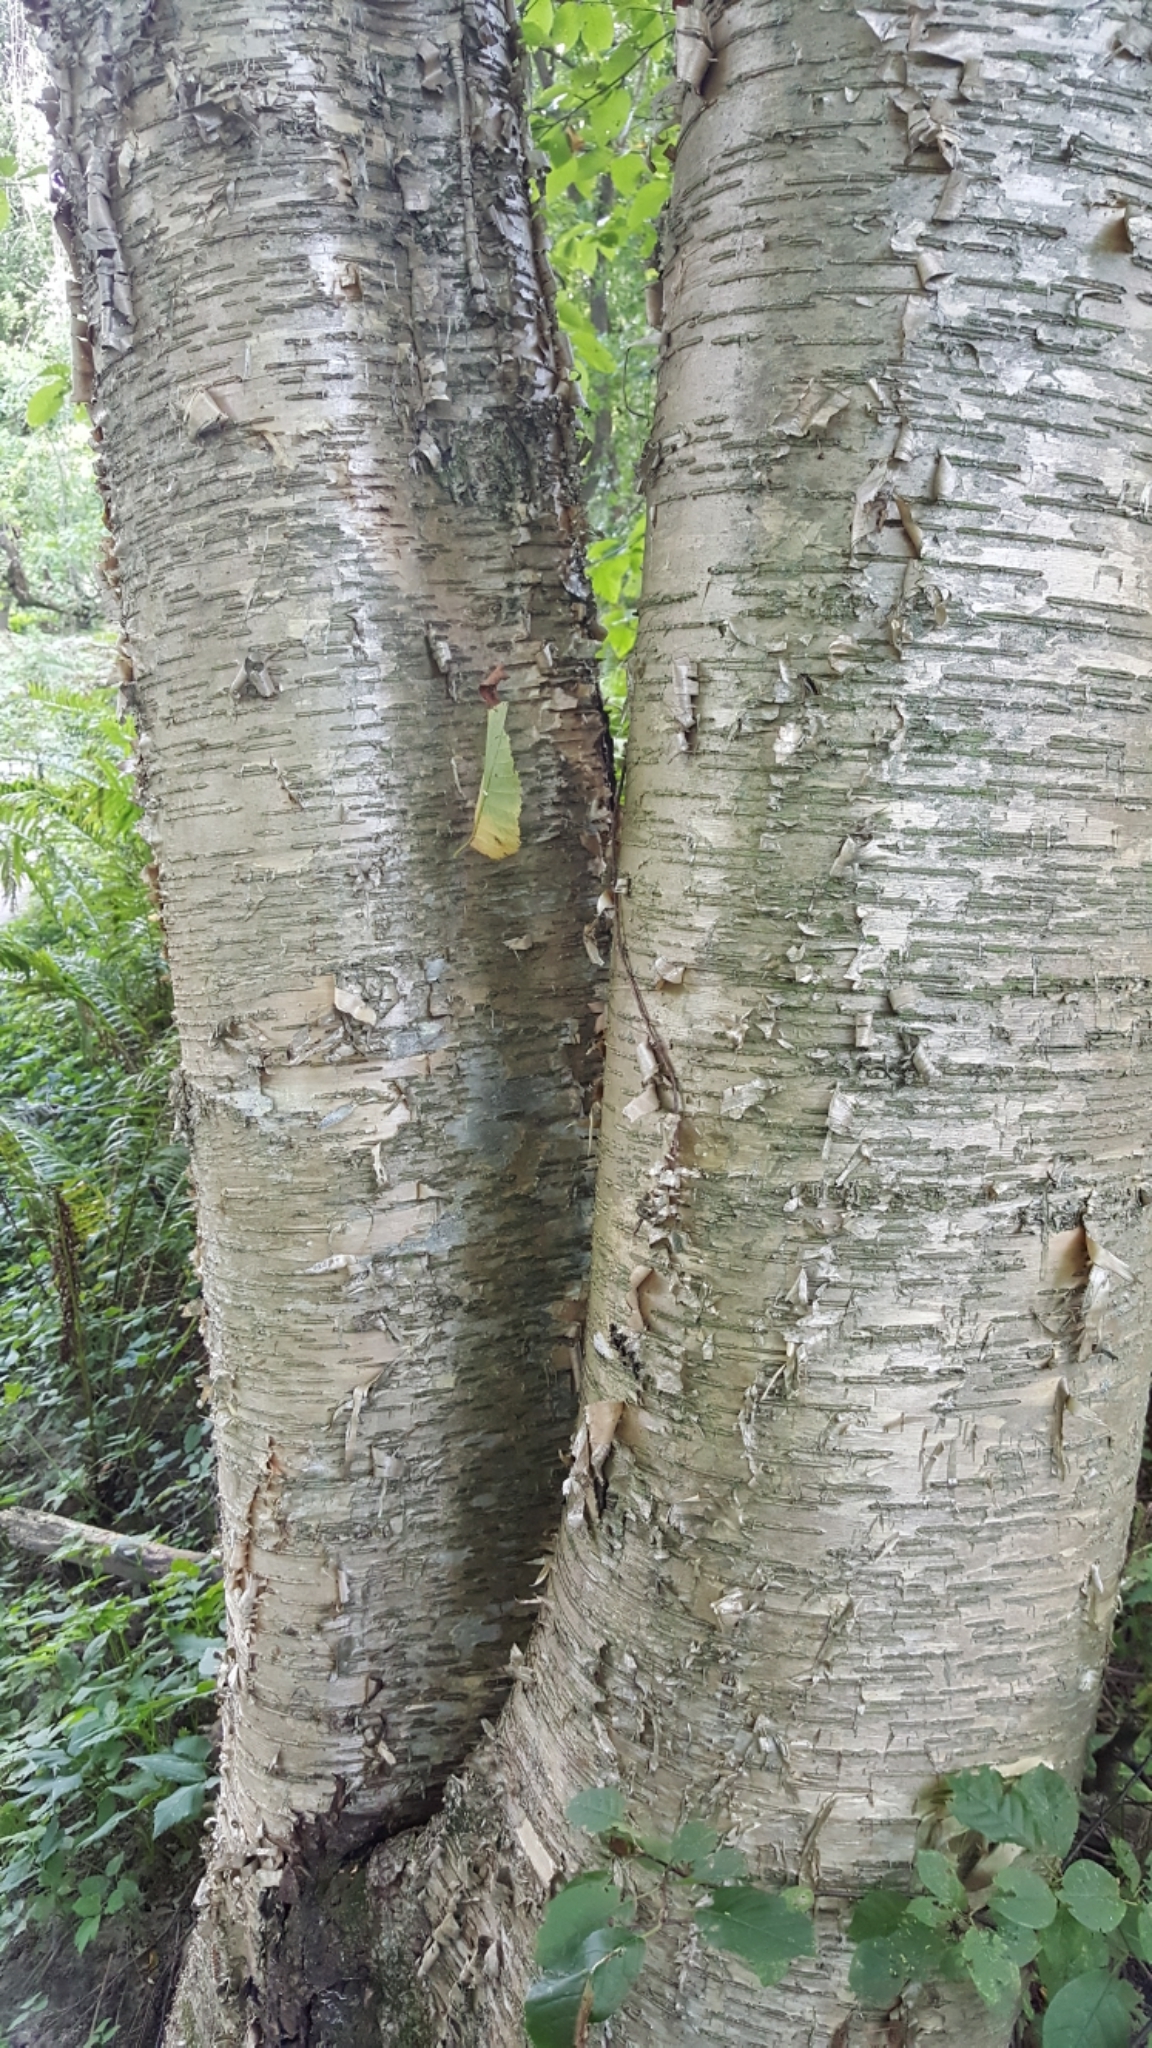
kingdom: Plantae
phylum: Tracheophyta
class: Magnoliopsida
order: Fagales
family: Betulaceae
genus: Betula
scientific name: Betula alleghaniensis
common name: Yellow birch
